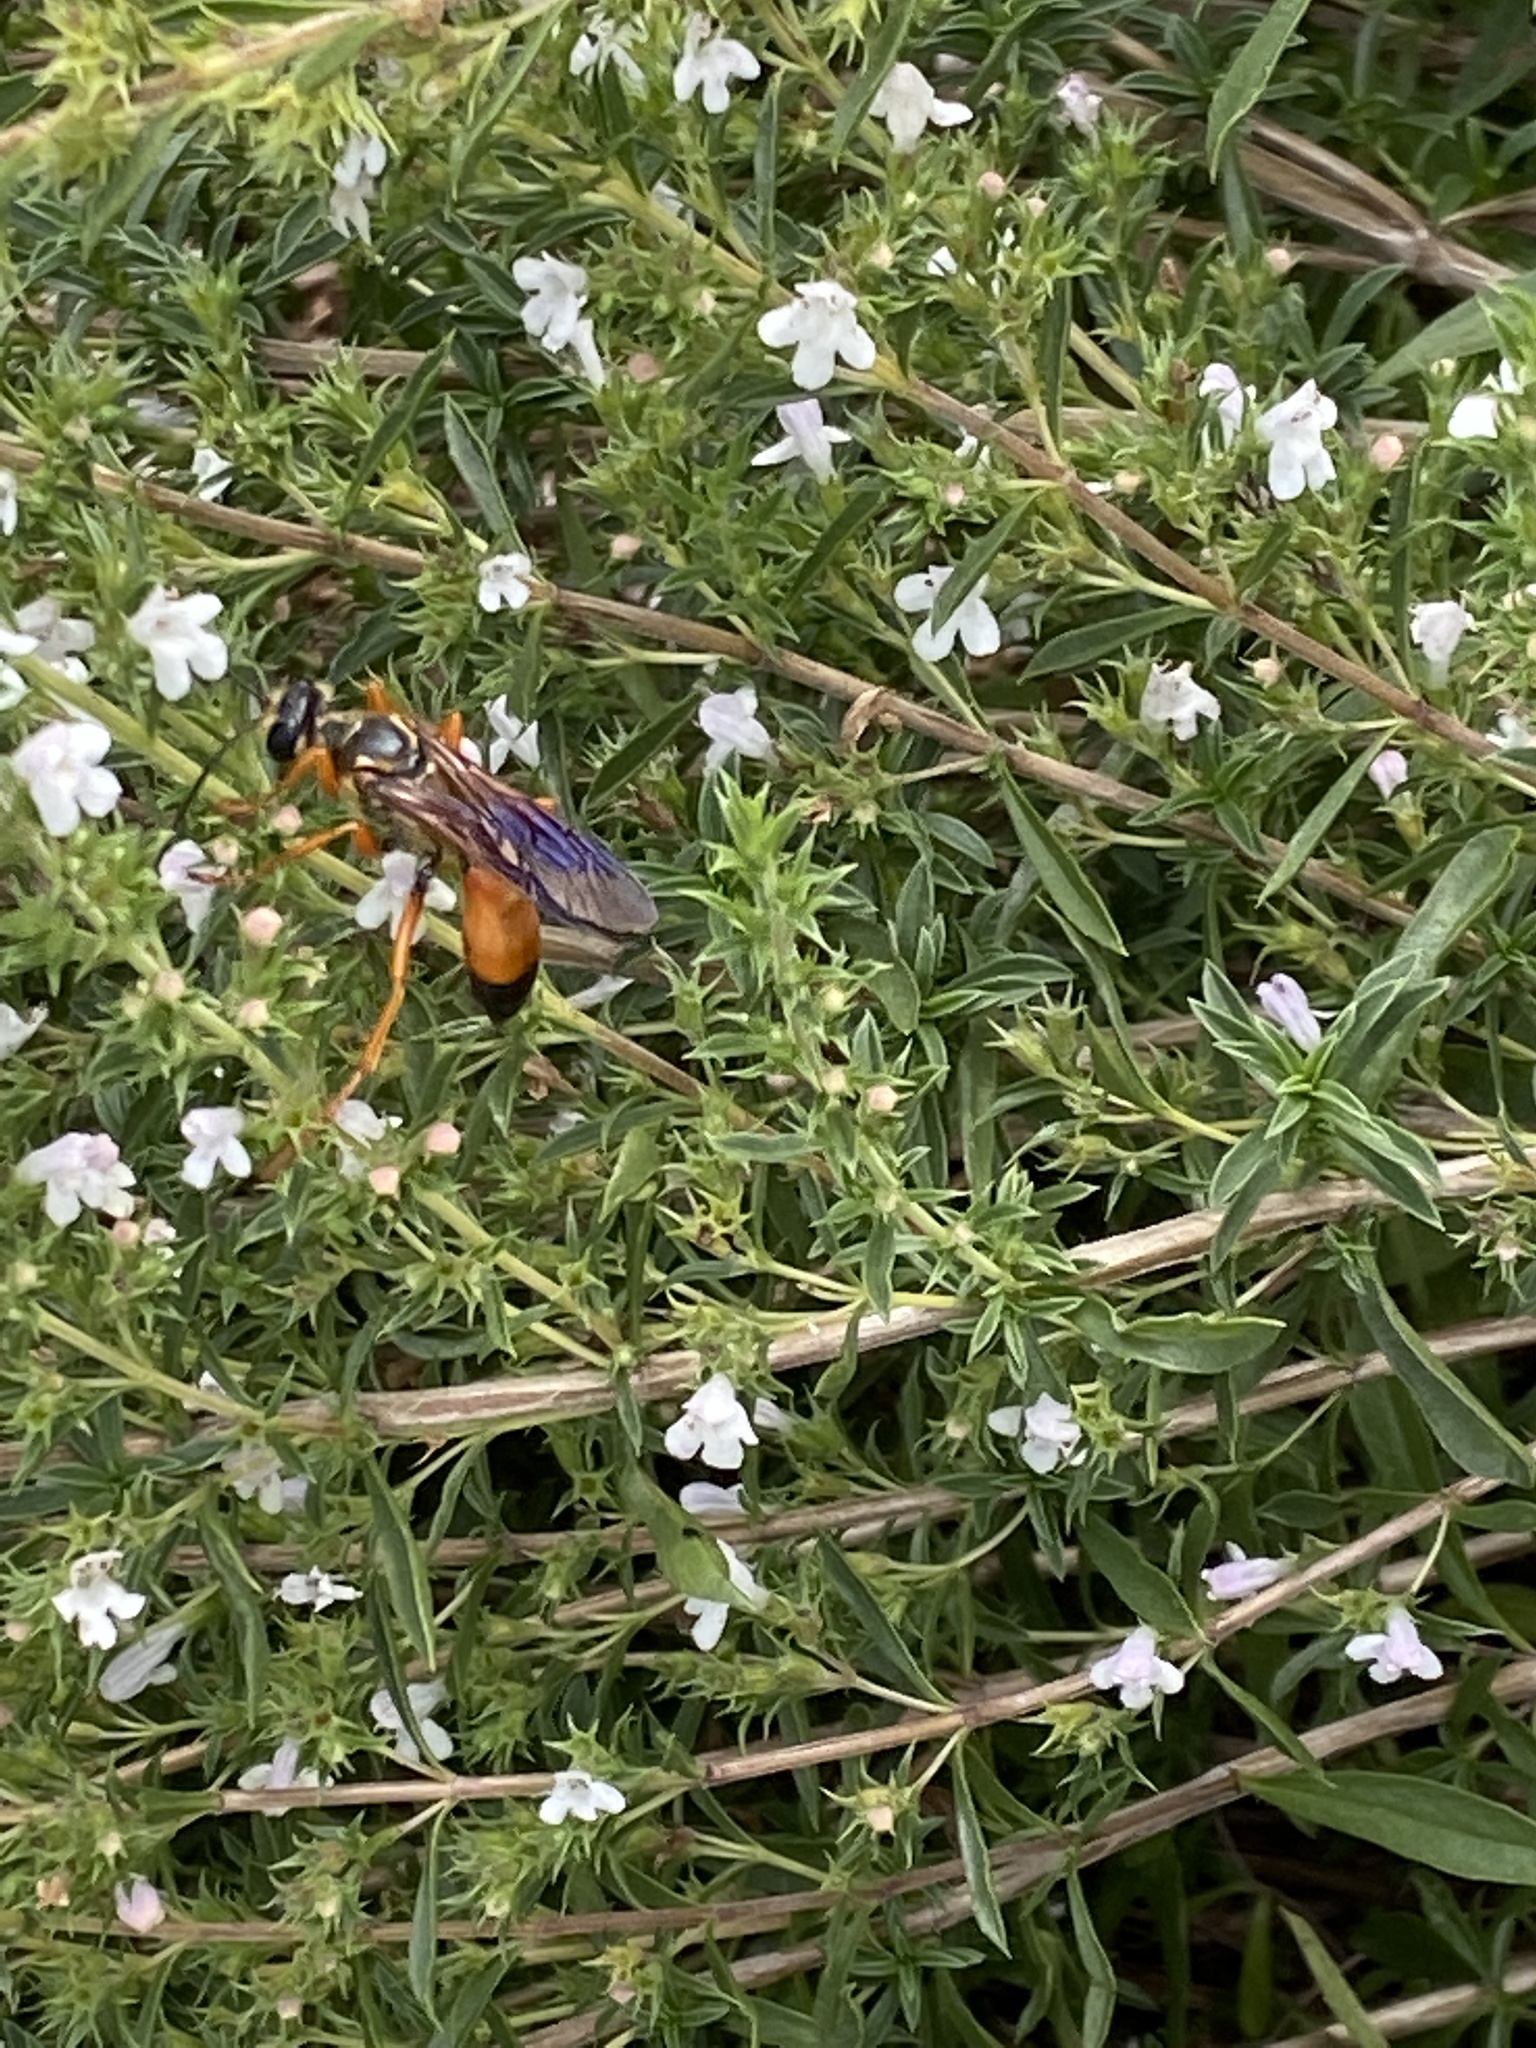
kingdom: Animalia
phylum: Arthropoda
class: Insecta
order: Hymenoptera
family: Sphecidae
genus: Sphex
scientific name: Sphex ichneumoneus
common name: Great golden digger wasp
